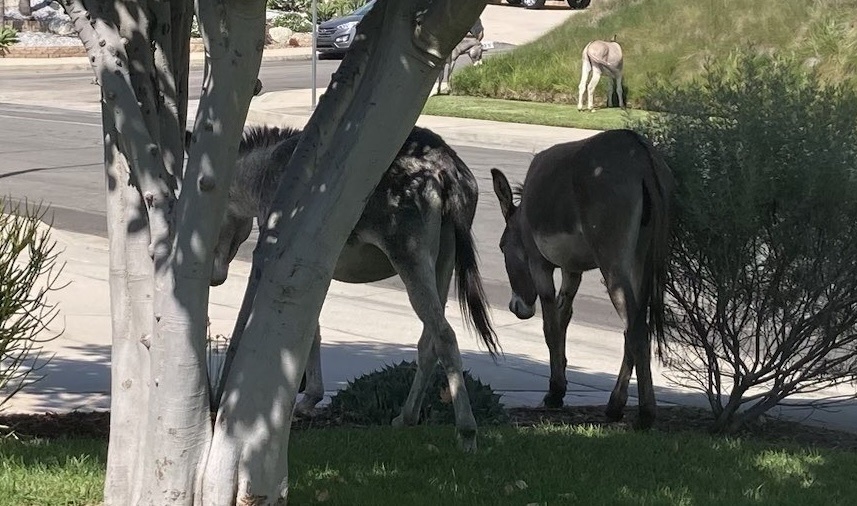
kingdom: Animalia
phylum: Chordata
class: Mammalia
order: Perissodactyla
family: Equidae
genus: Equus
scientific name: Equus asinus
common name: Ass
